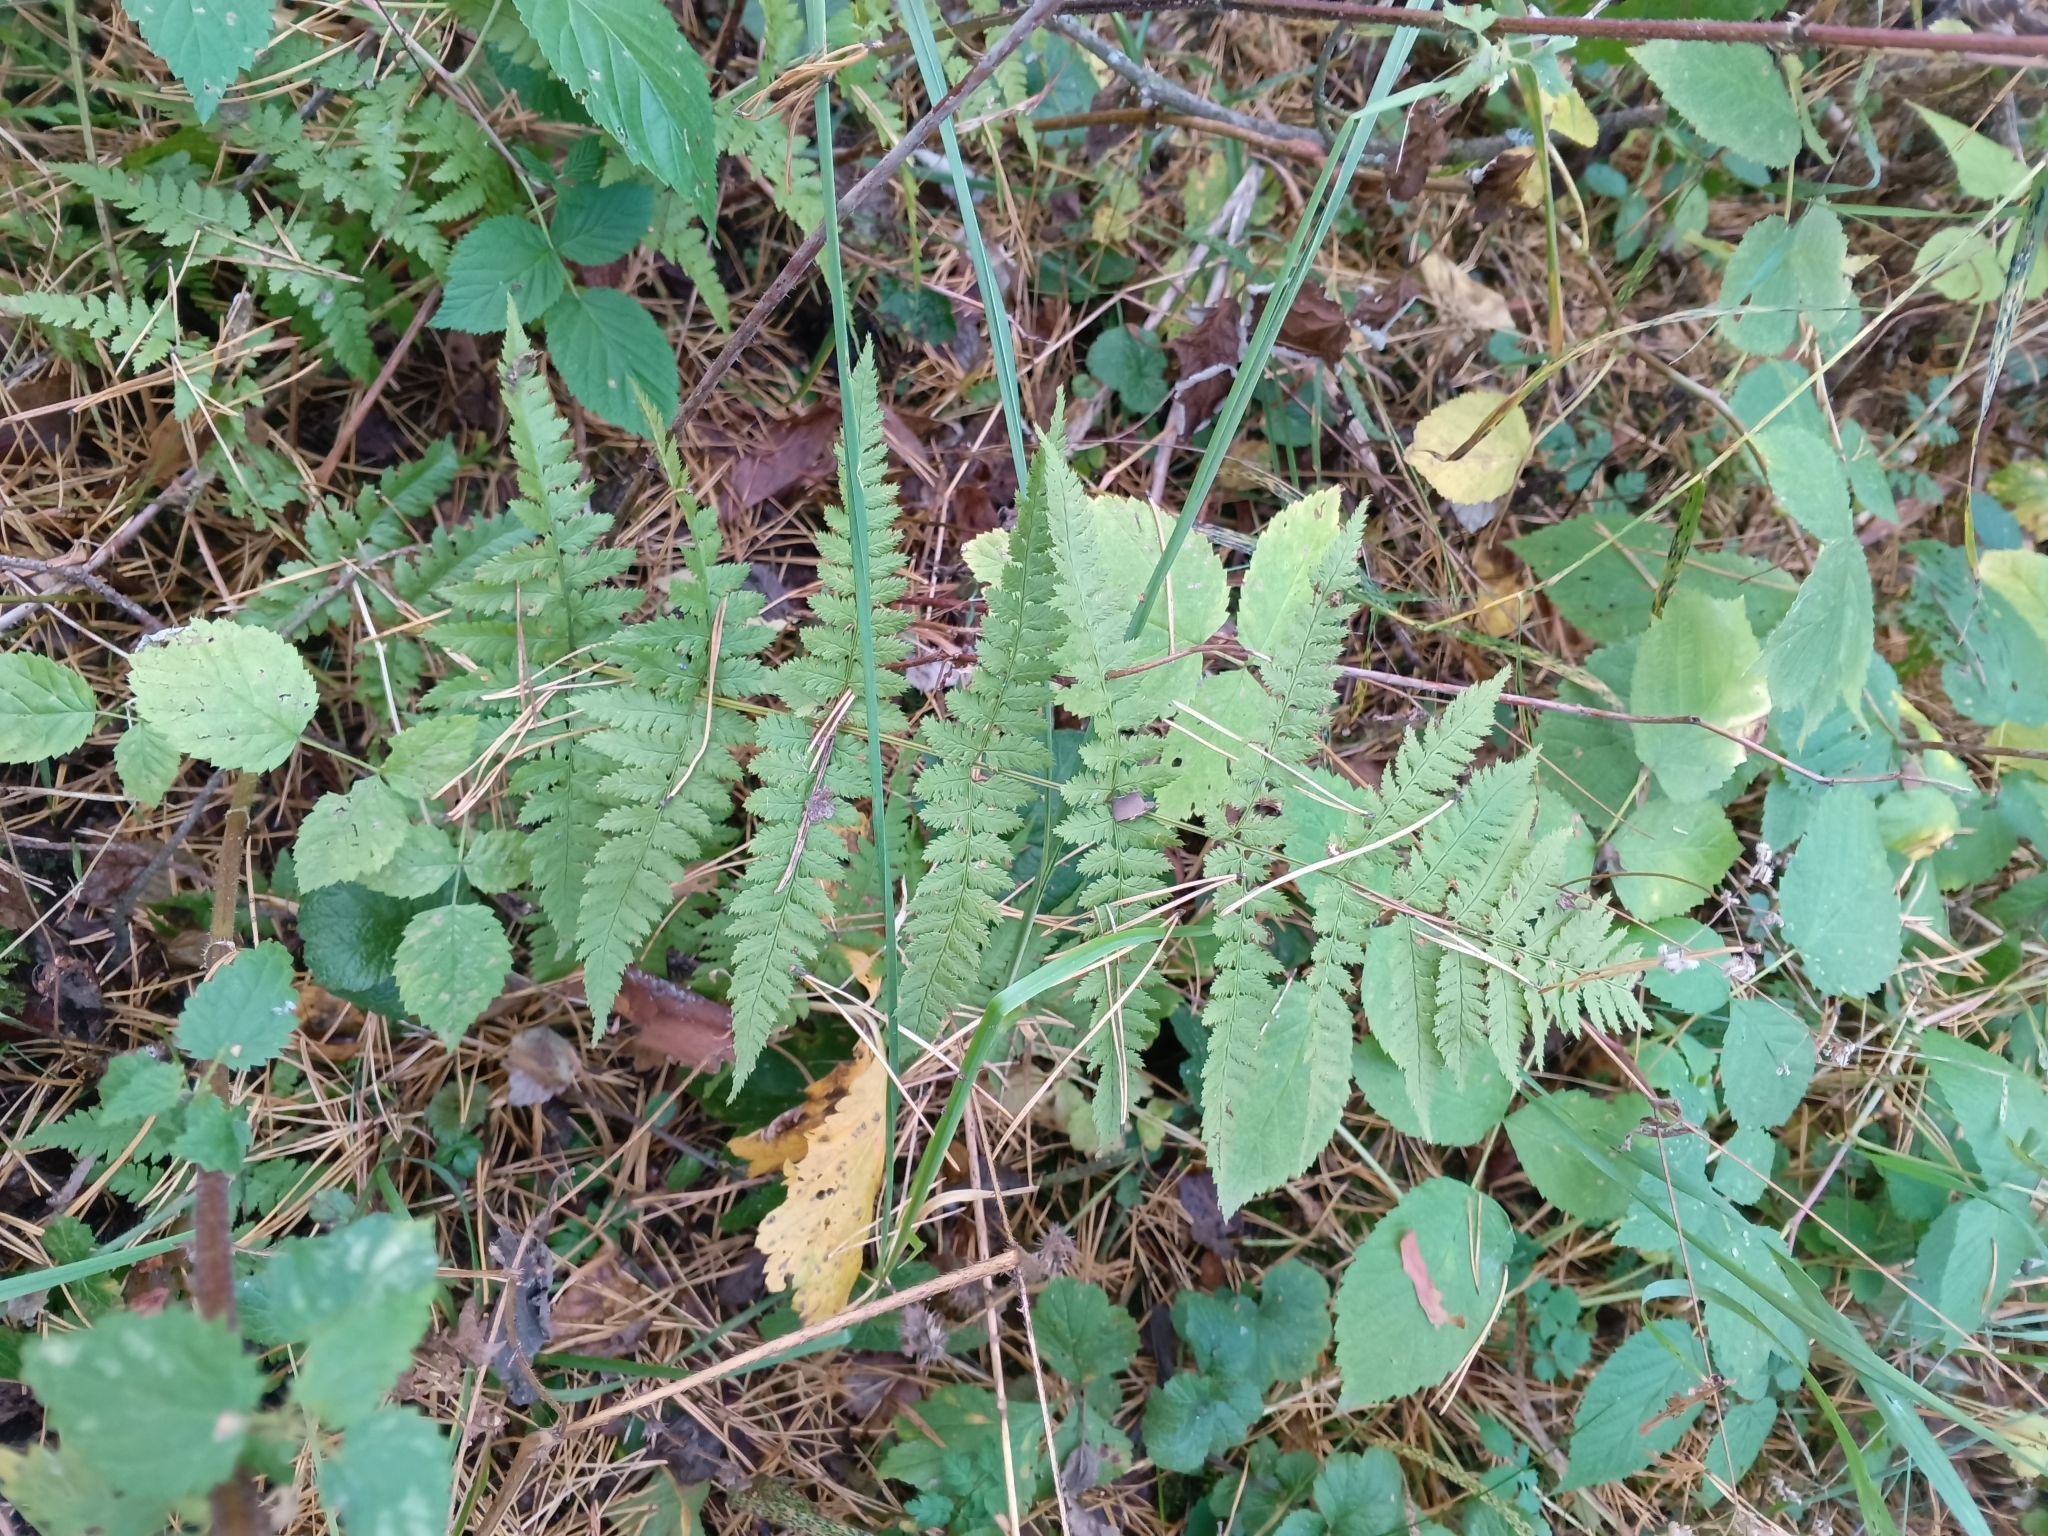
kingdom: Plantae
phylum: Tracheophyta
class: Polypodiopsida
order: Polypodiales
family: Dryopteridaceae
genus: Dryopteris
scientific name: Dryopteris carthusiana
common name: Narrow buckler-fern
